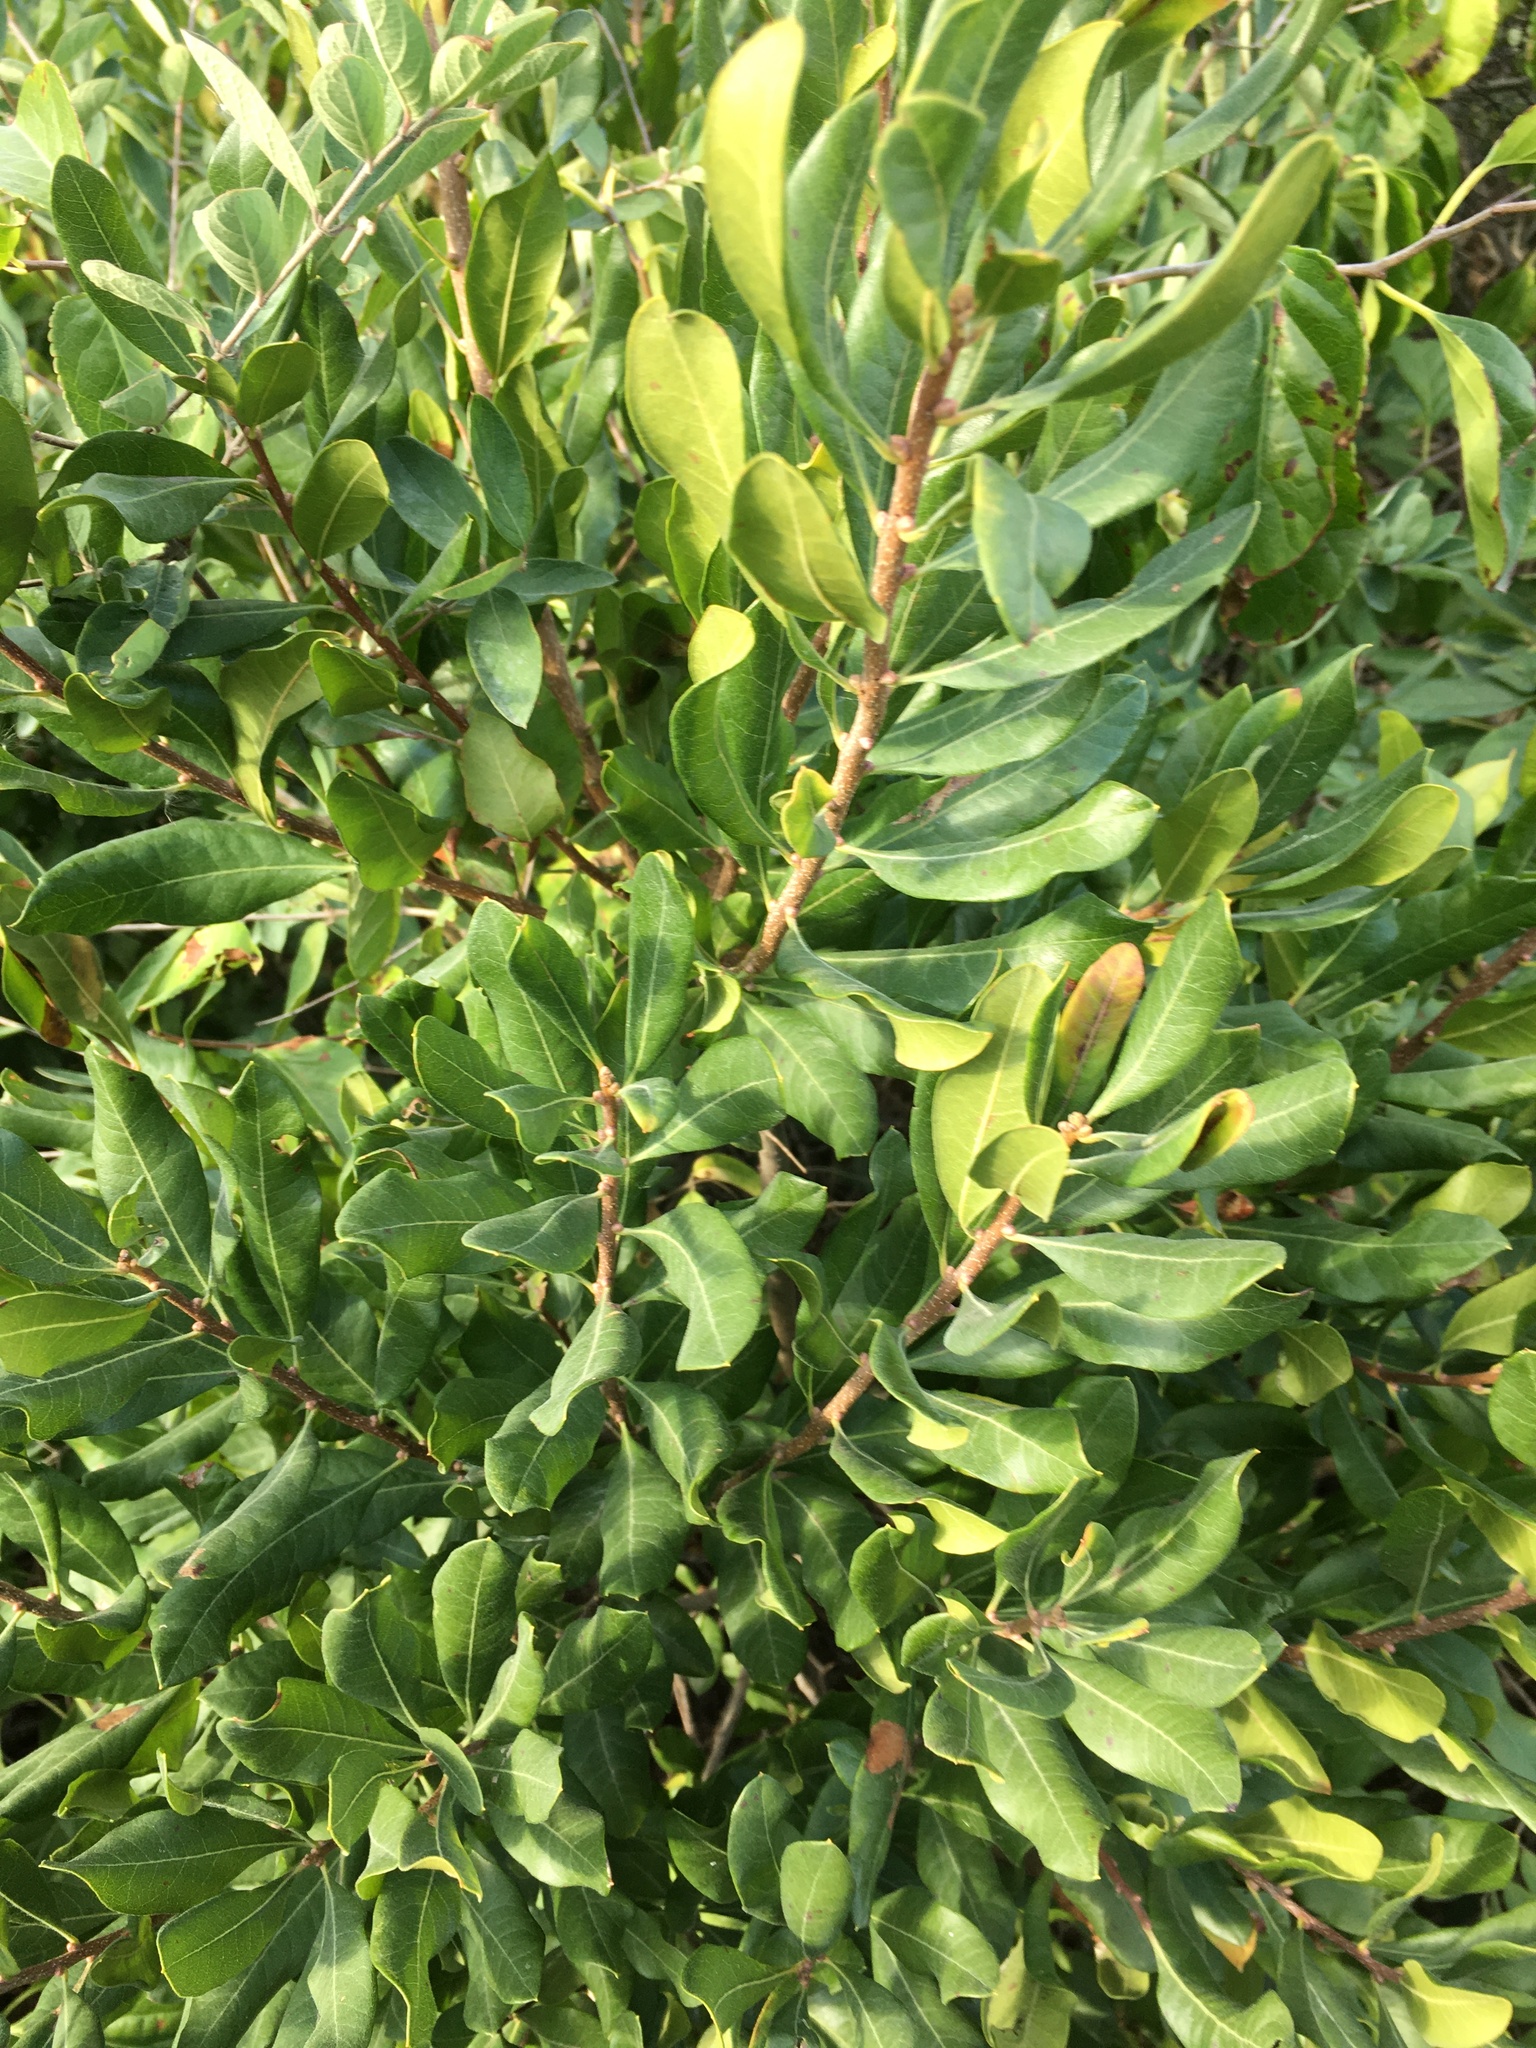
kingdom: Plantae
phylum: Tracheophyta
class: Magnoliopsida
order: Fagales
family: Myricaceae
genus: Morella
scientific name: Morella pensylvanica
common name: Northern bayberry
